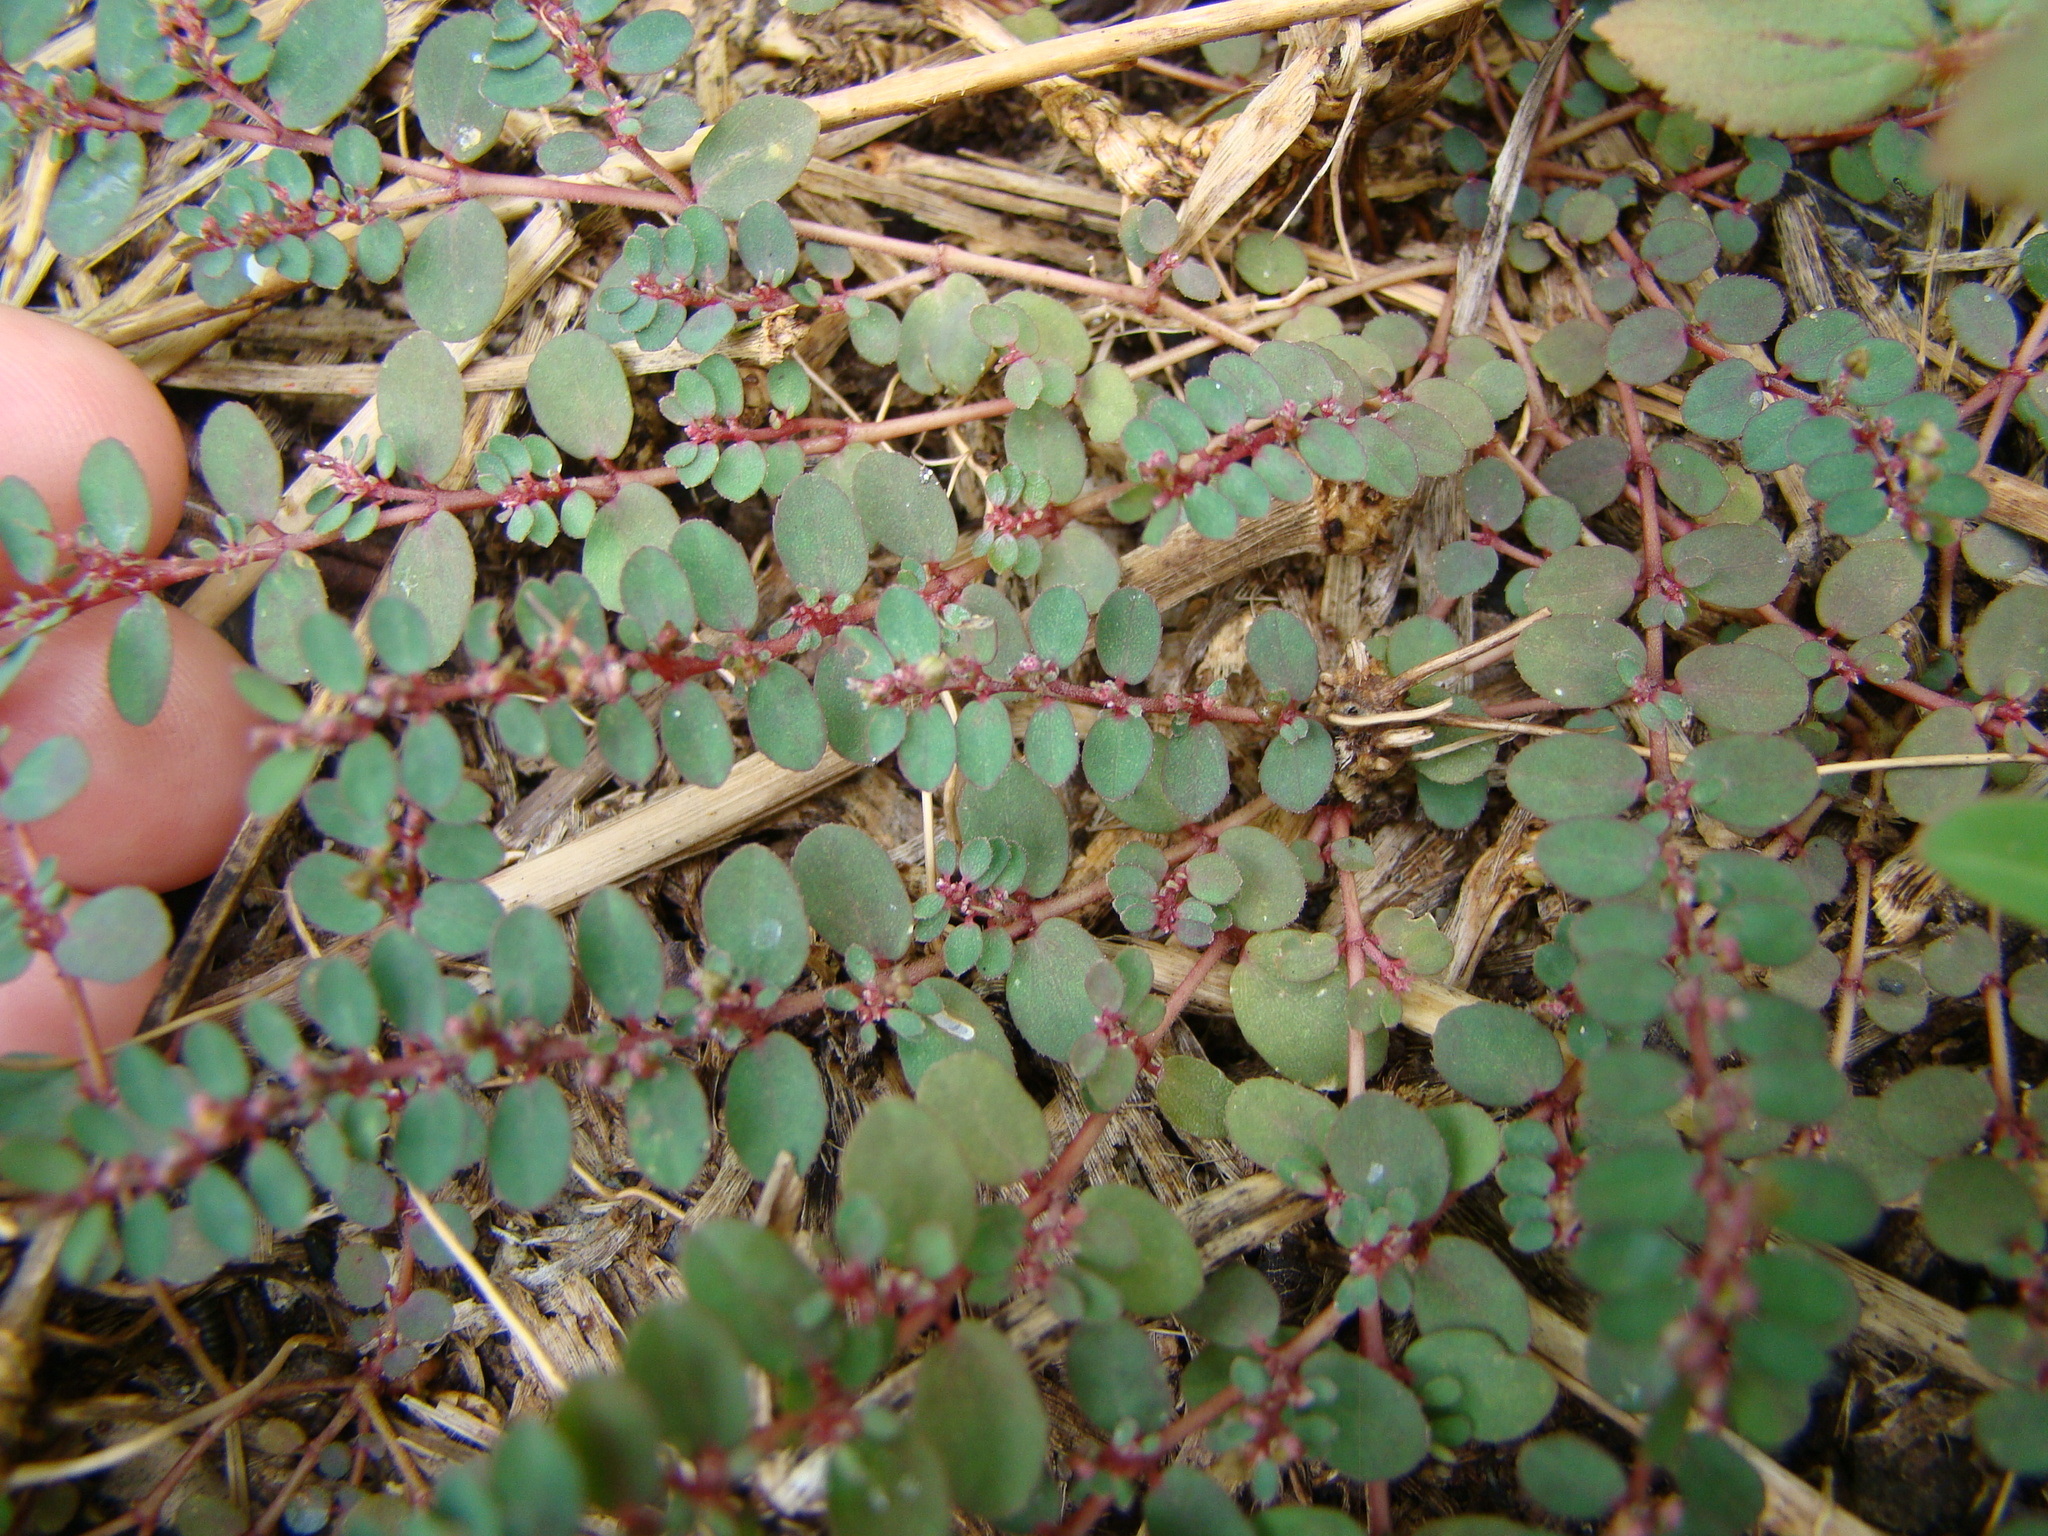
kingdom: Plantae
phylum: Tracheophyta
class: Magnoliopsida
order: Malpighiales
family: Euphorbiaceae
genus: Euphorbia
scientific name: Euphorbia prostrata
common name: Prostrate sandmat
